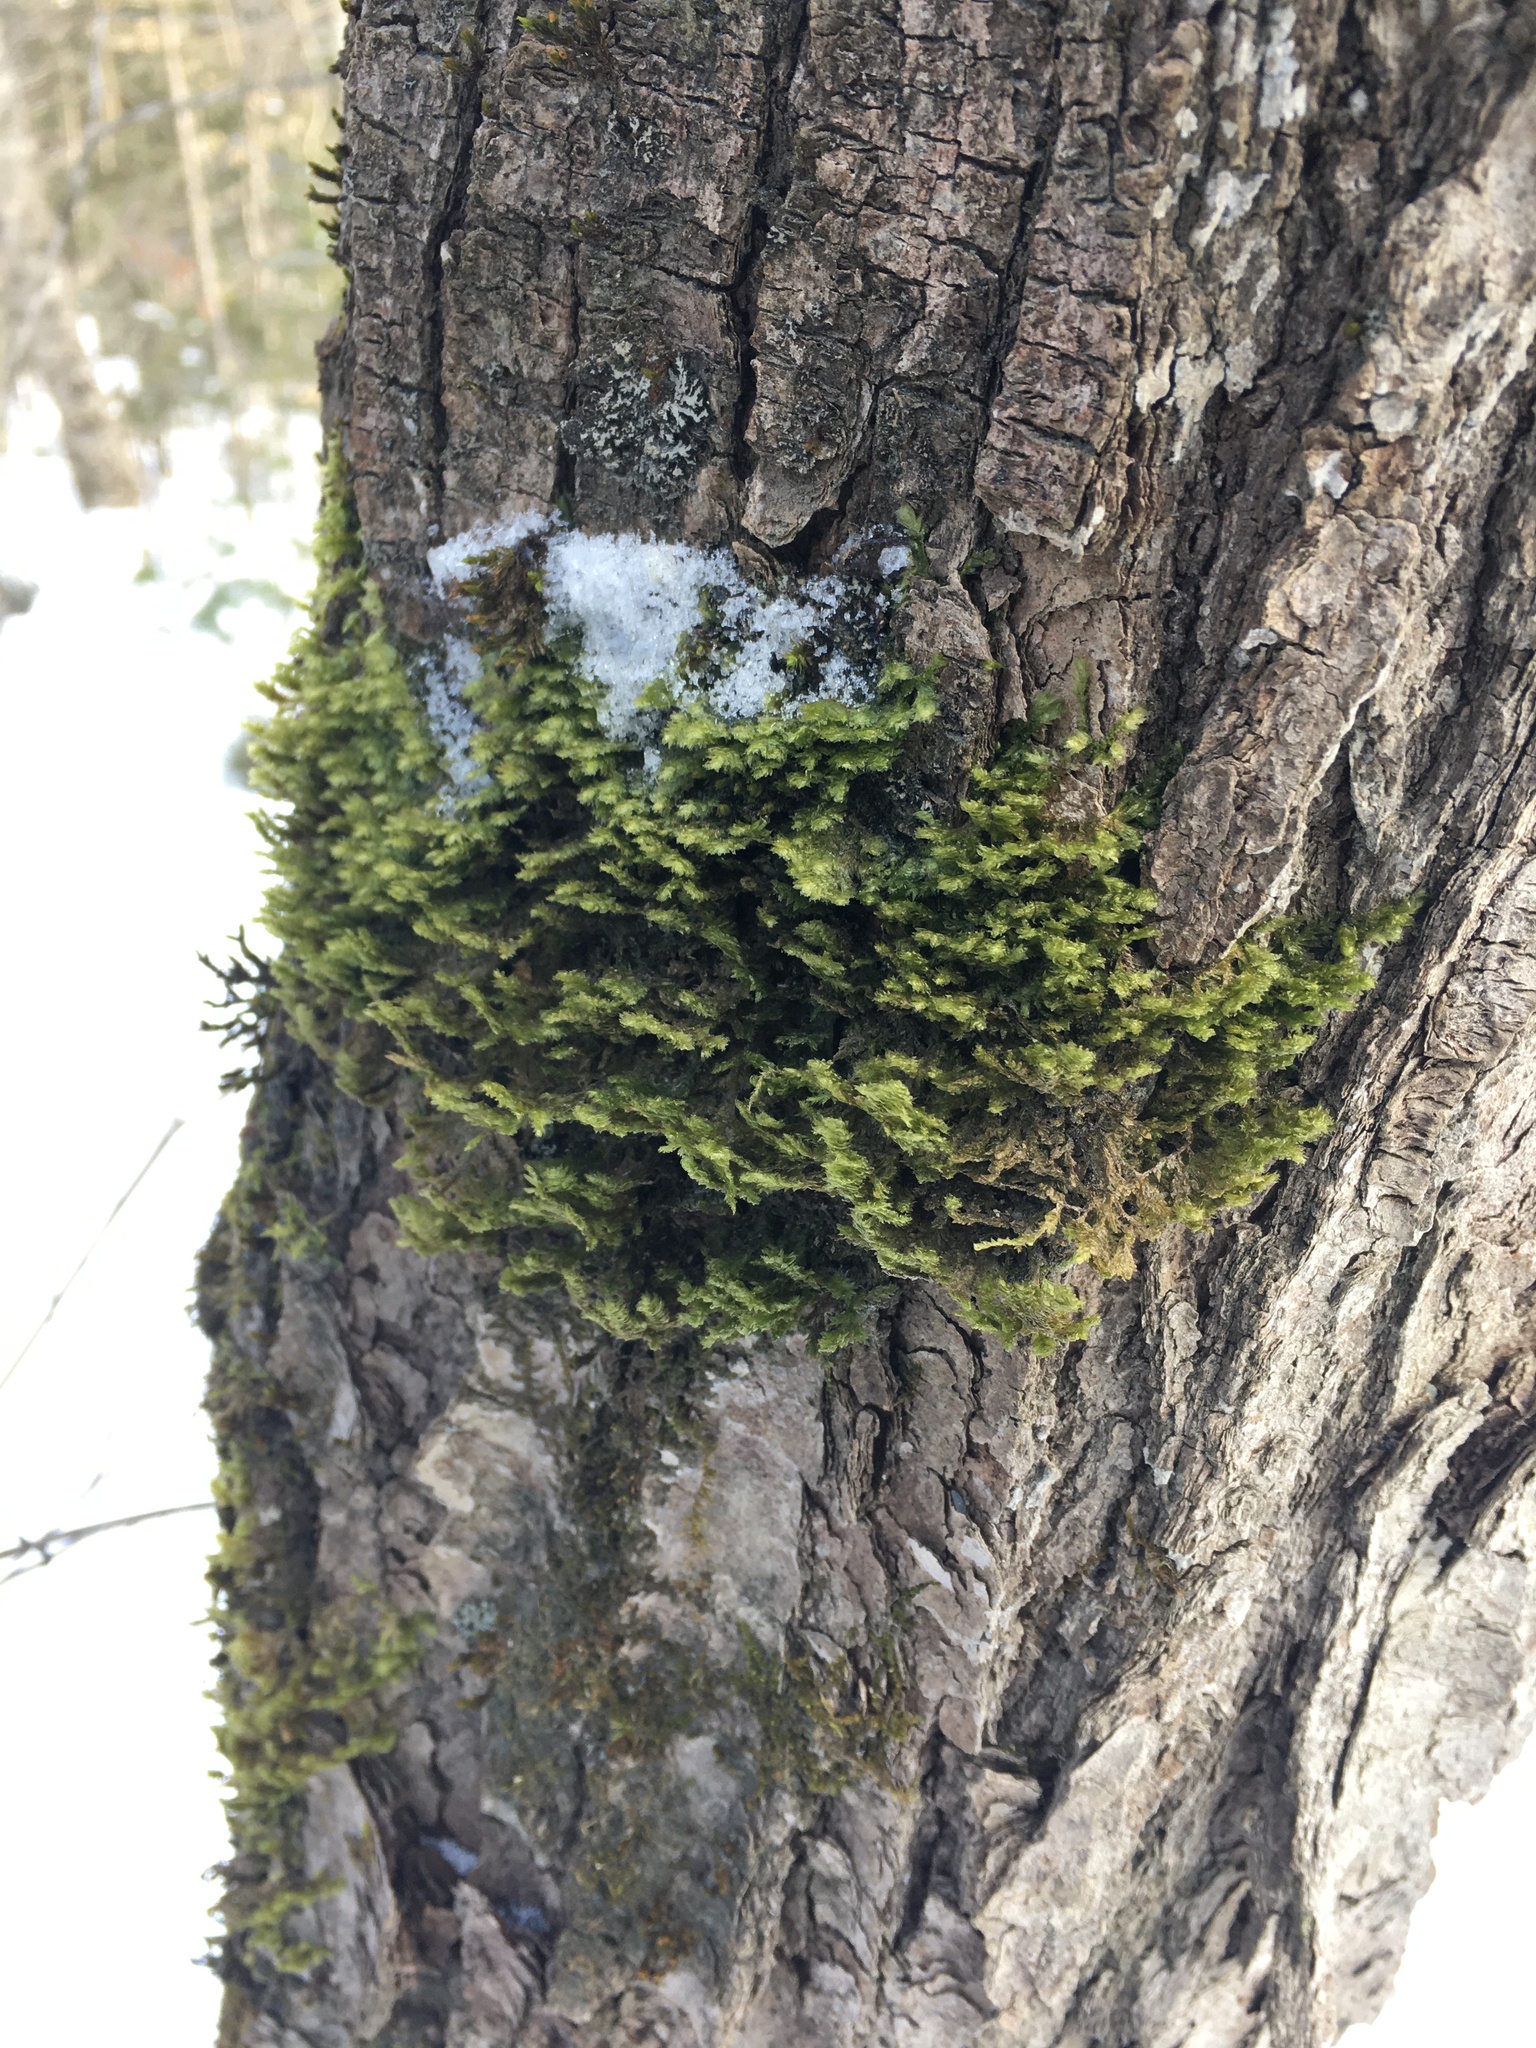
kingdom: Plantae
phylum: Bryophyta
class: Bryopsida
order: Hypnales
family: Neckeraceae
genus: Neckera
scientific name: Neckera pennata
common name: Feathery neckera
